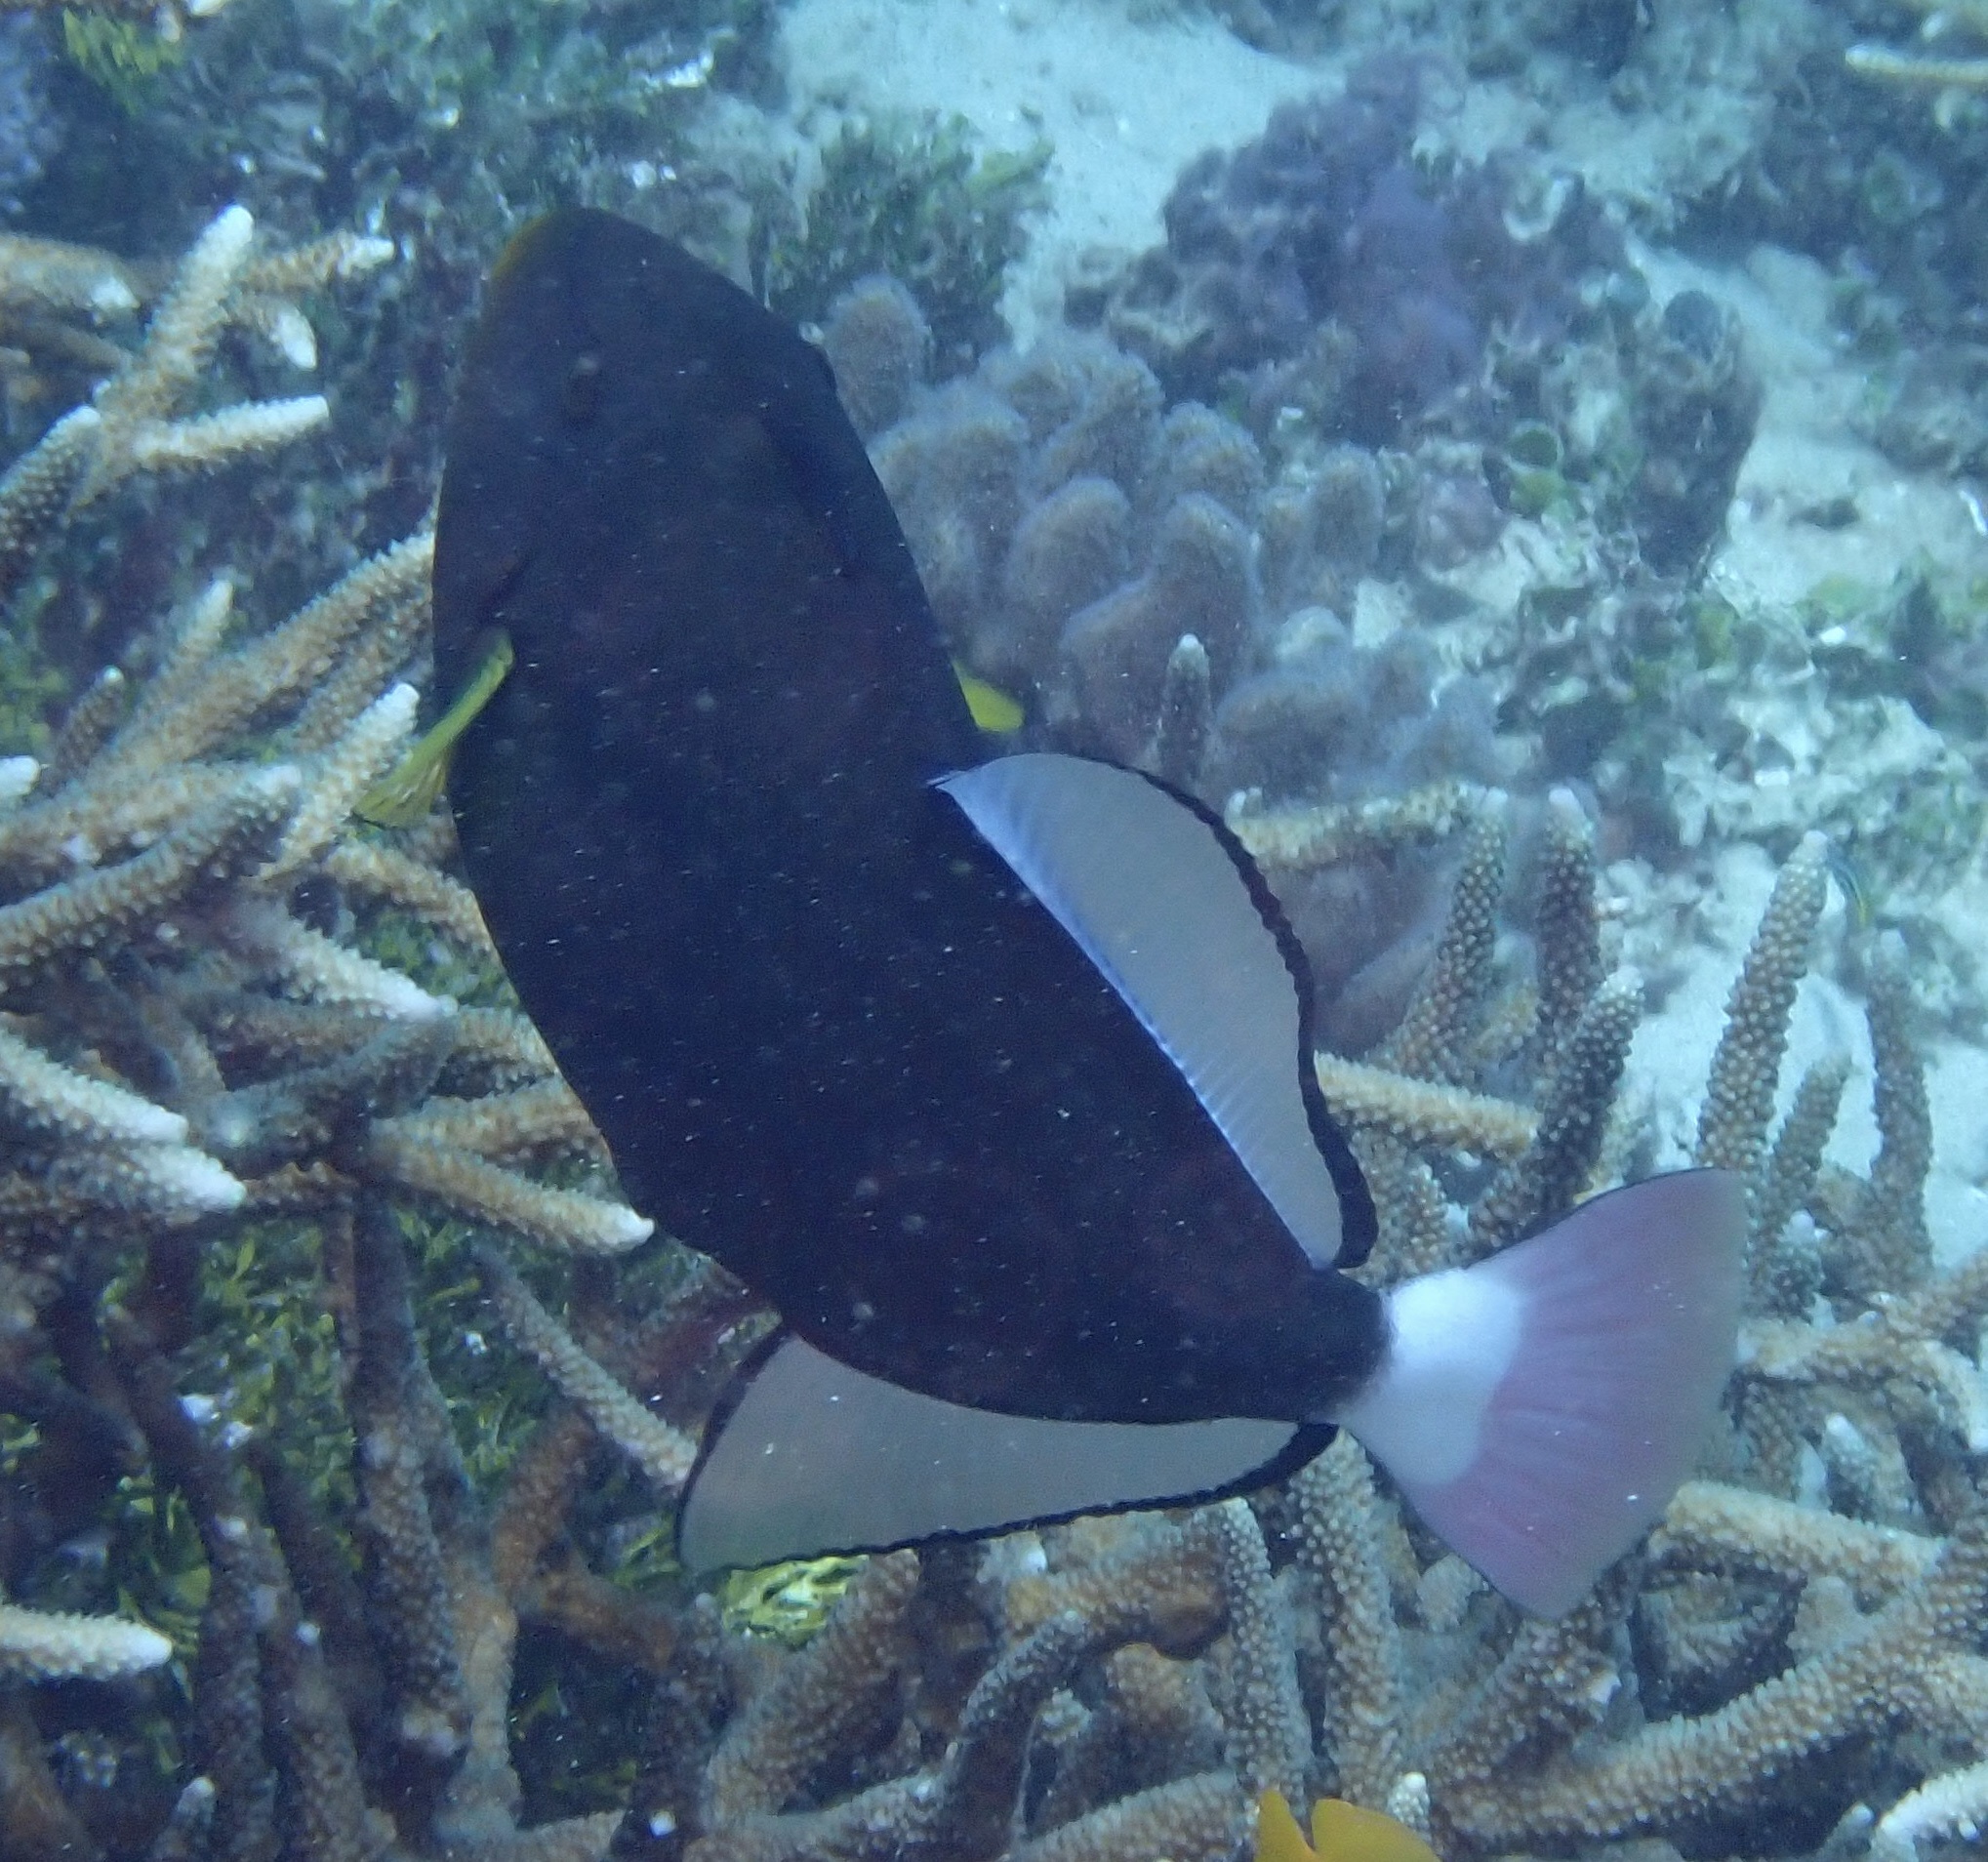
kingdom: Animalia
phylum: Chordata
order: Tetraodontiformes
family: Balistidae
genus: Melichthys
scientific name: Melichthys vidua
